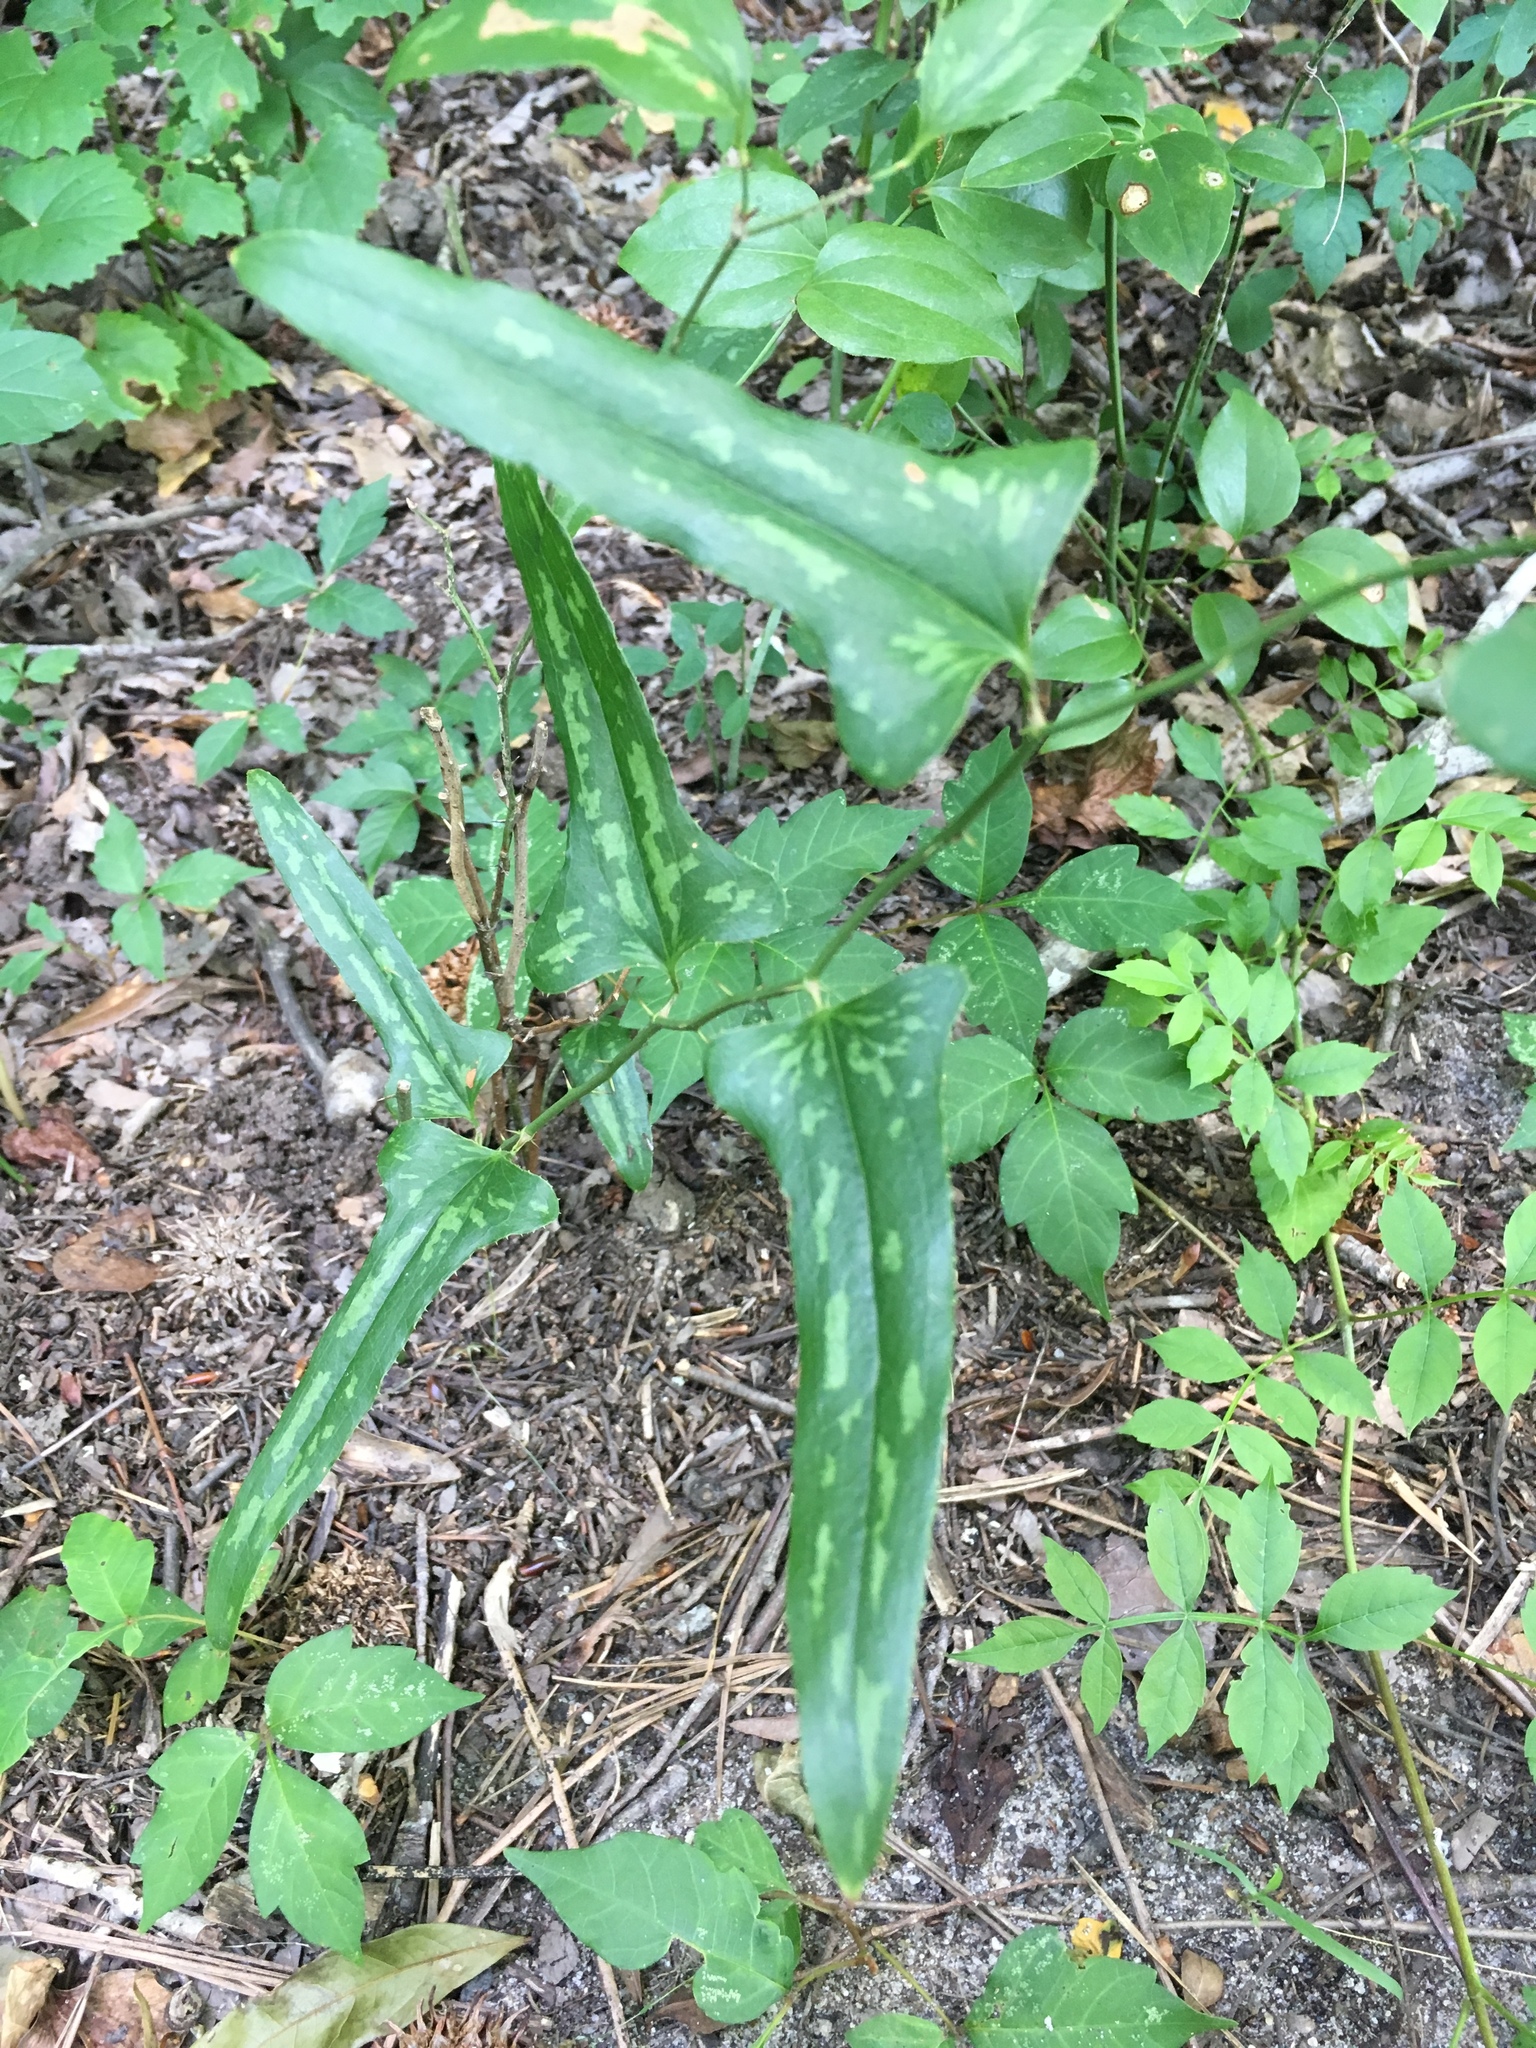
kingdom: Plantae
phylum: Tracheophyta
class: Liliopsida
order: Liliales
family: Smilacaceae
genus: Smilax
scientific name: Smilax bona-nox
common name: Catbrier
